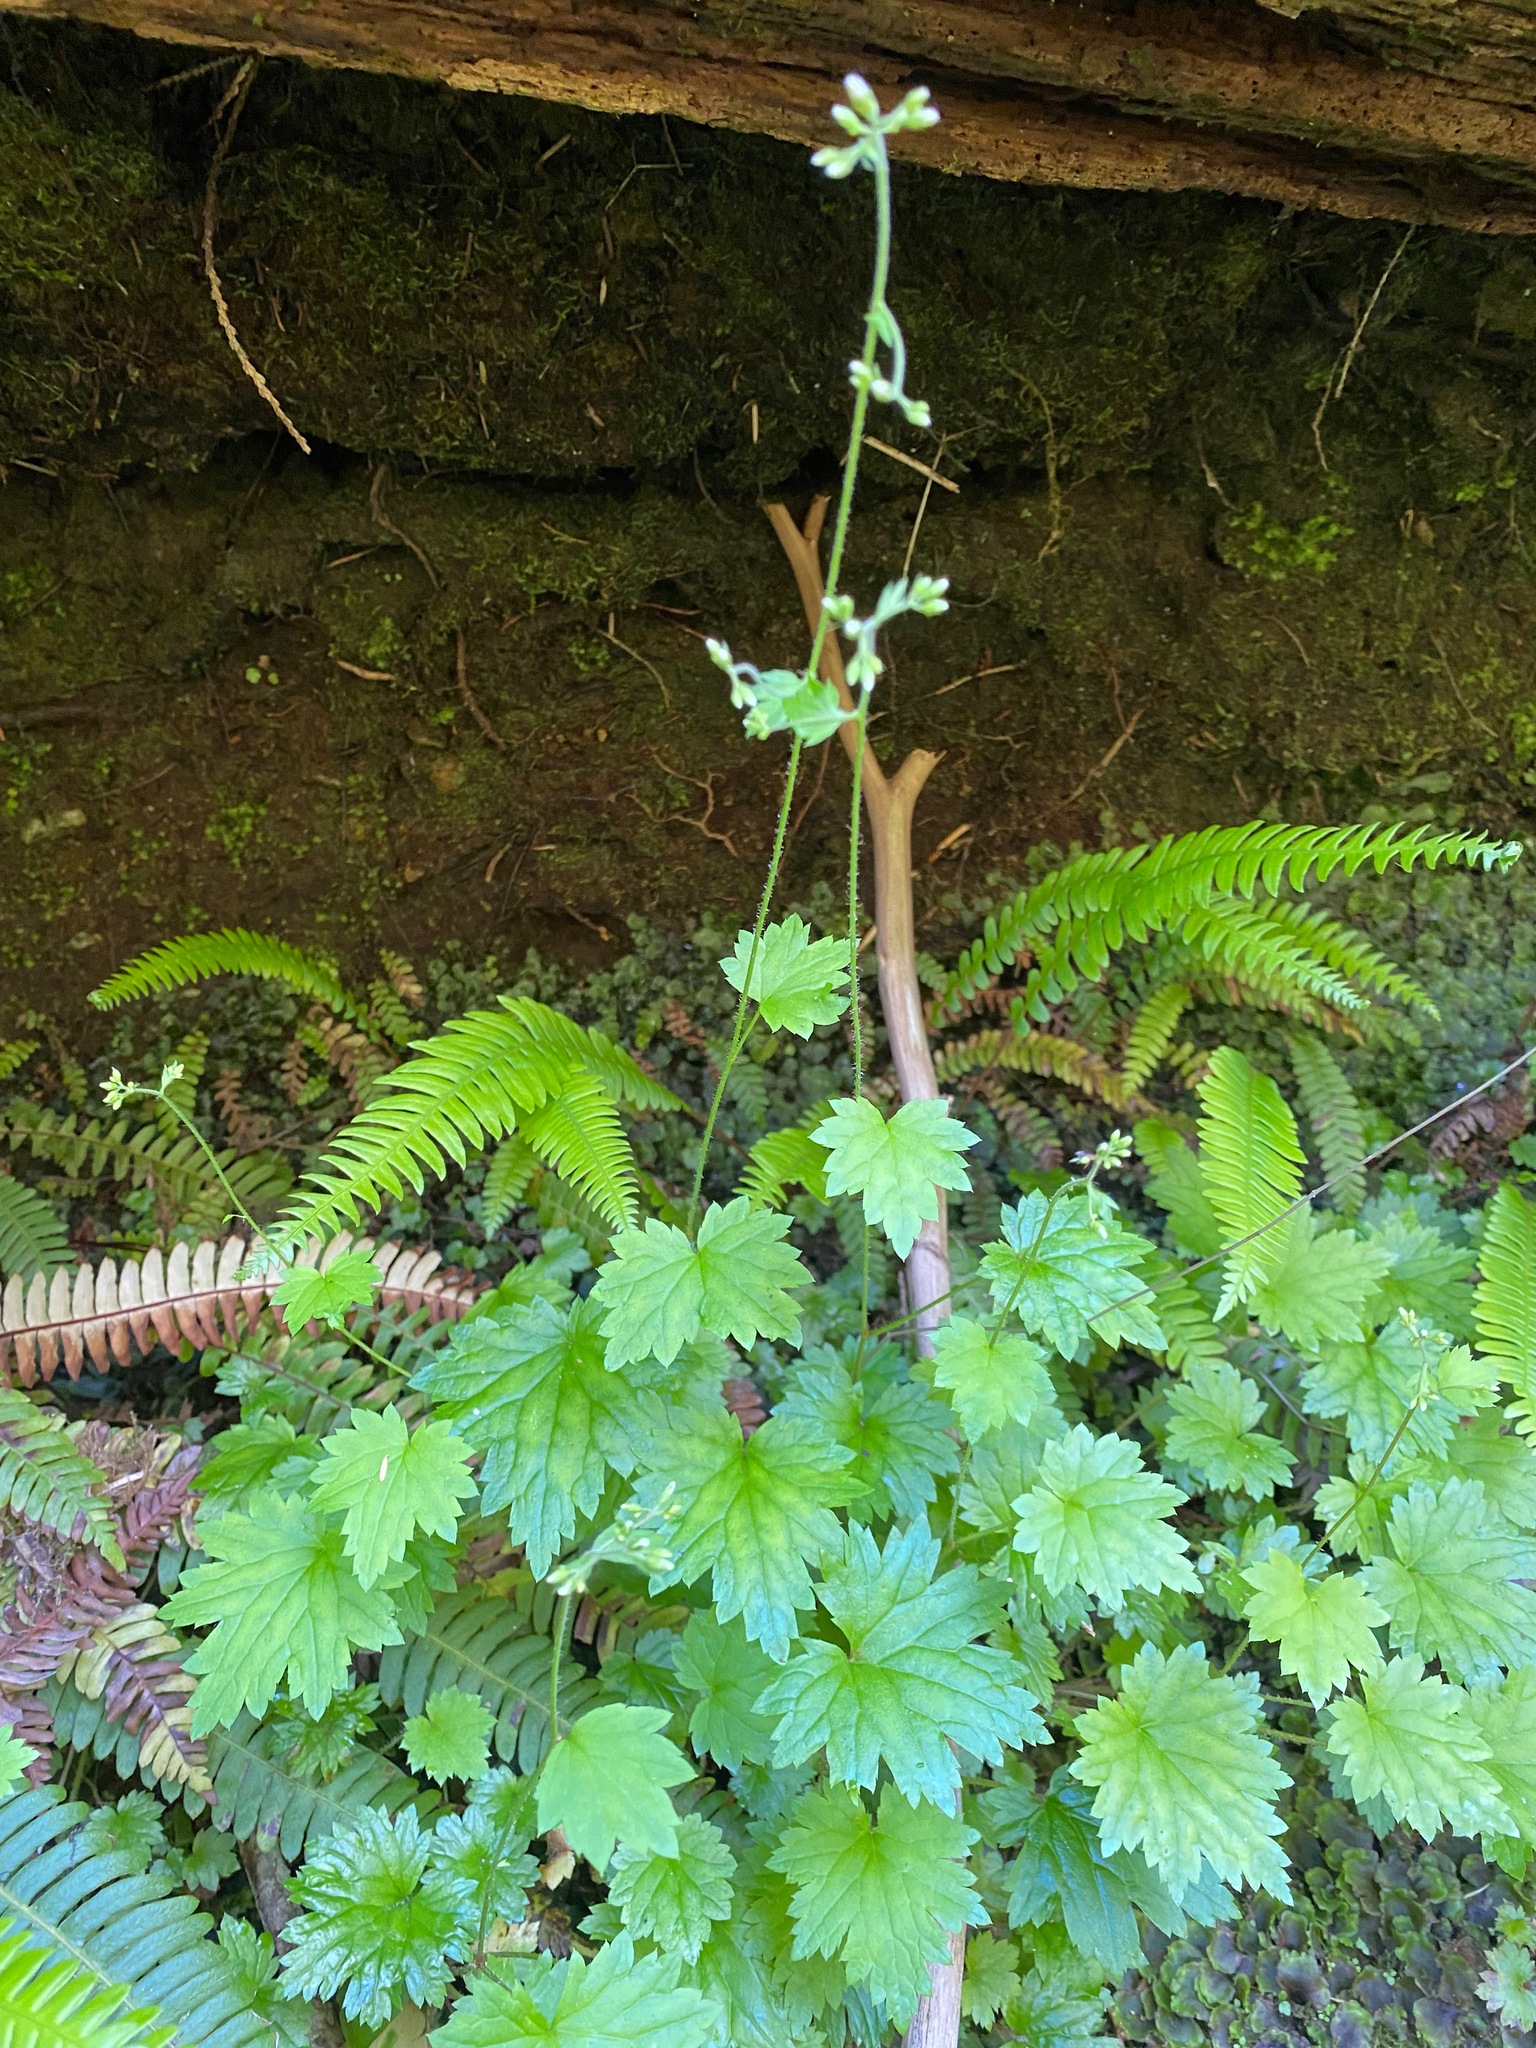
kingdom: Plantae
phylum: Tracheophyta
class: Magnoliopsida
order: Saxifragales
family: Saxifragaceae
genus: Boykinia
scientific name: Boykinia occidentalis
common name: Coast boykinia
